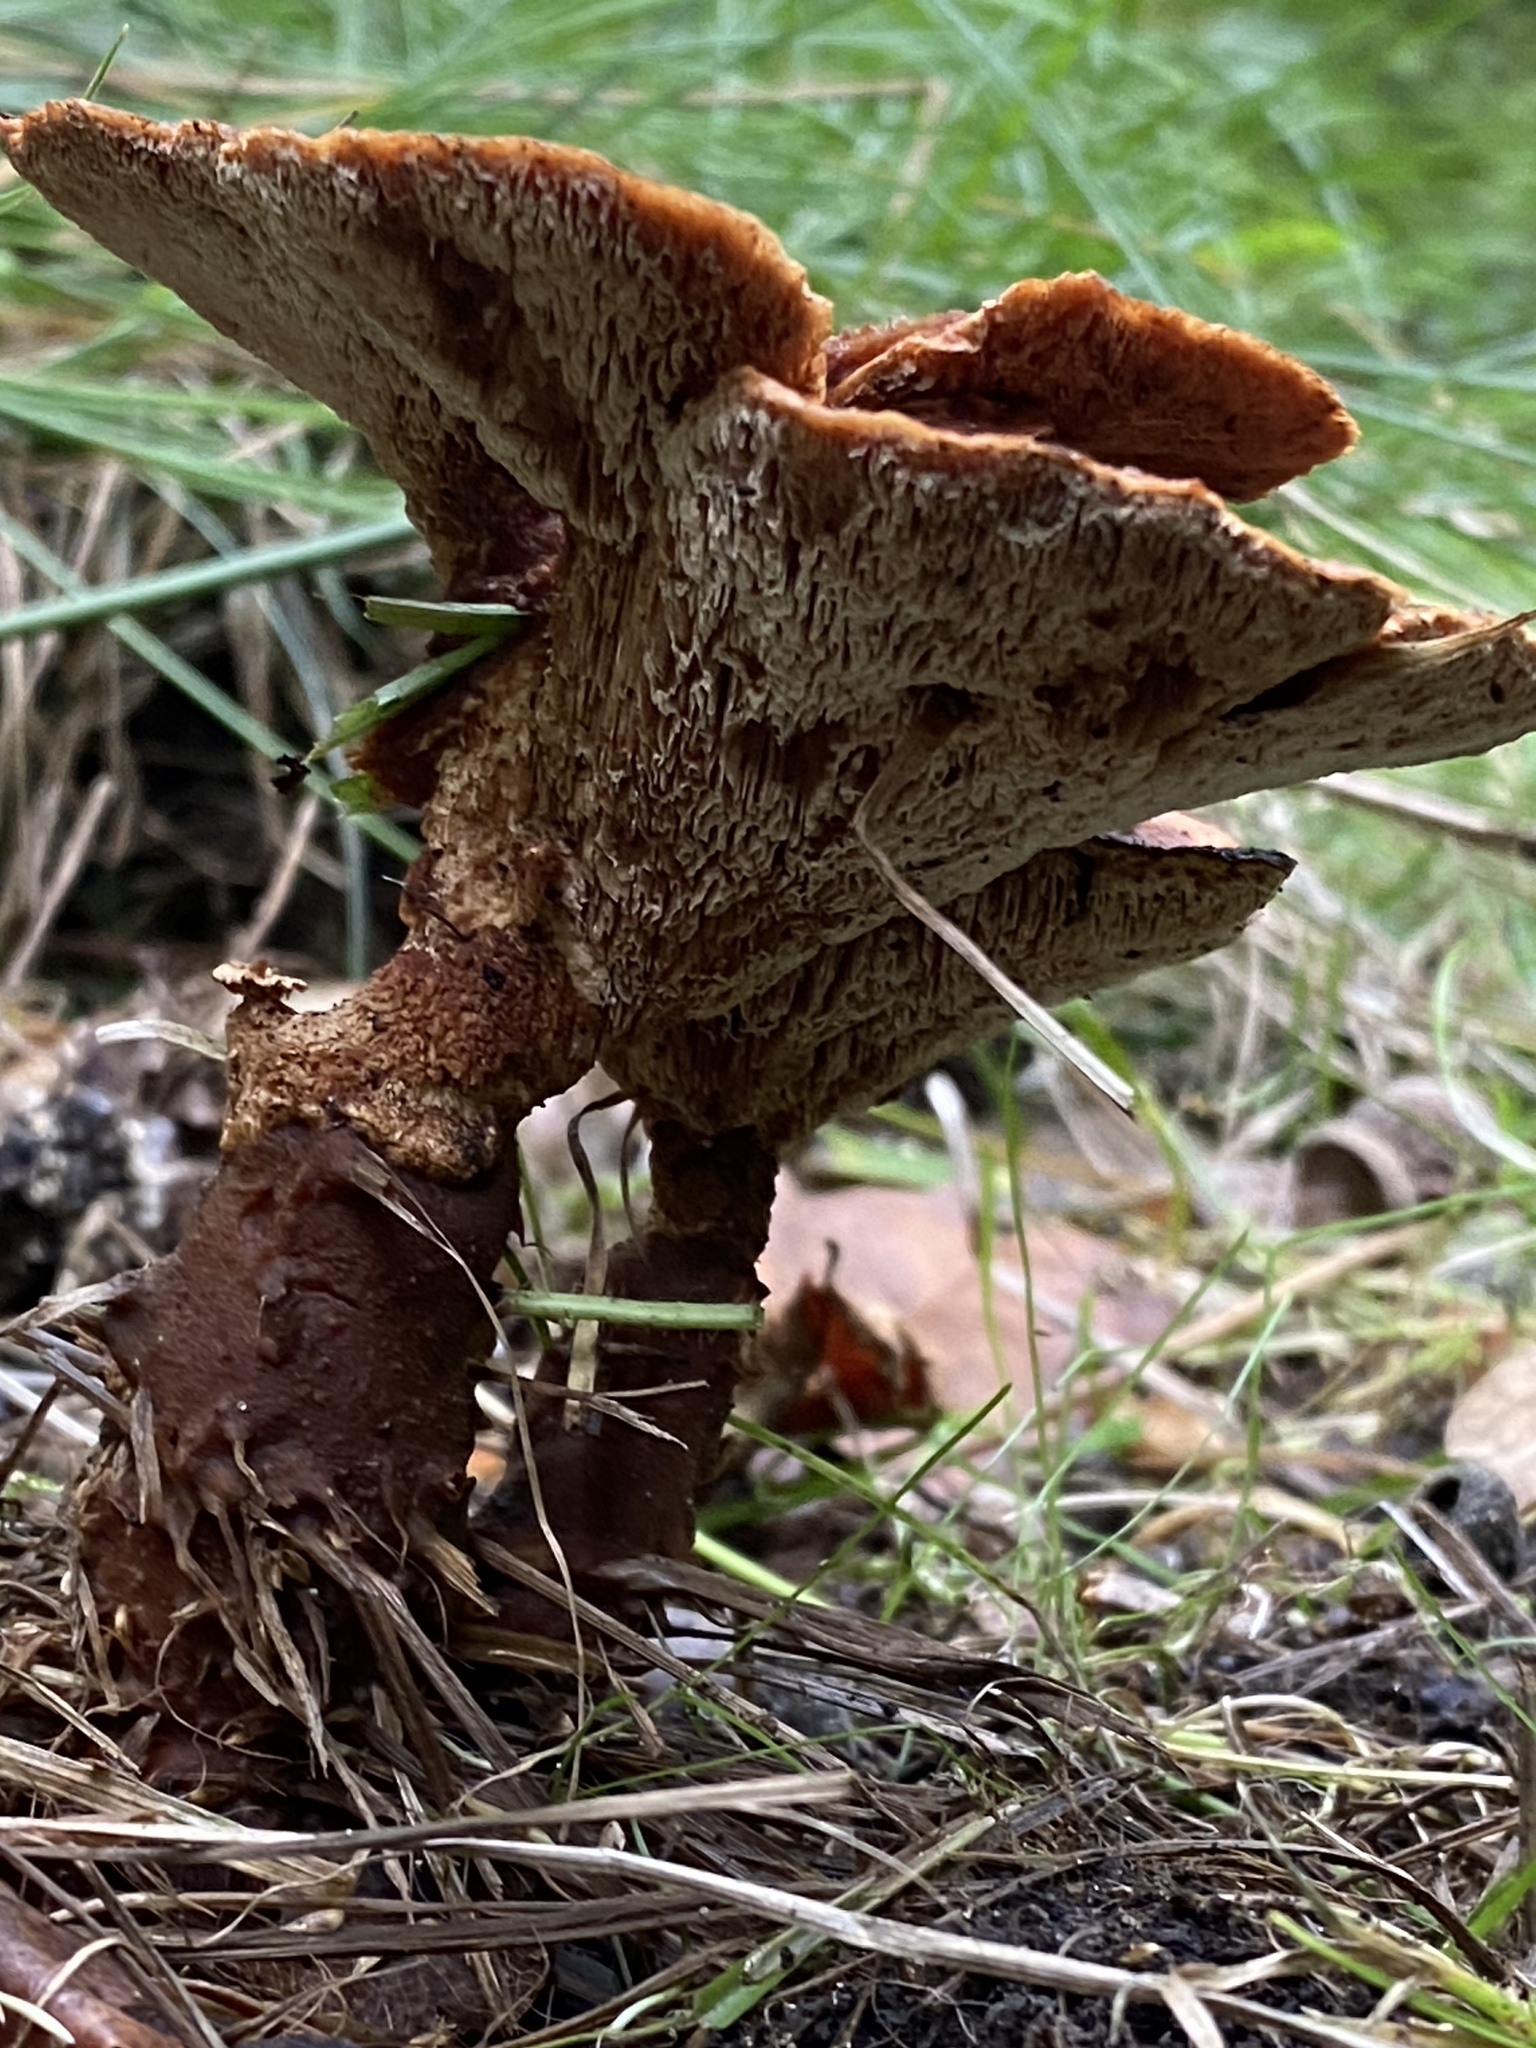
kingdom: Fungi
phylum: Basidiomycota
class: Agaricomycetes
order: Polyporales
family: Laetiporaceae
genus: Phaeolus
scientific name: Phaeolus schweinitzii
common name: Dyer's mazegill
